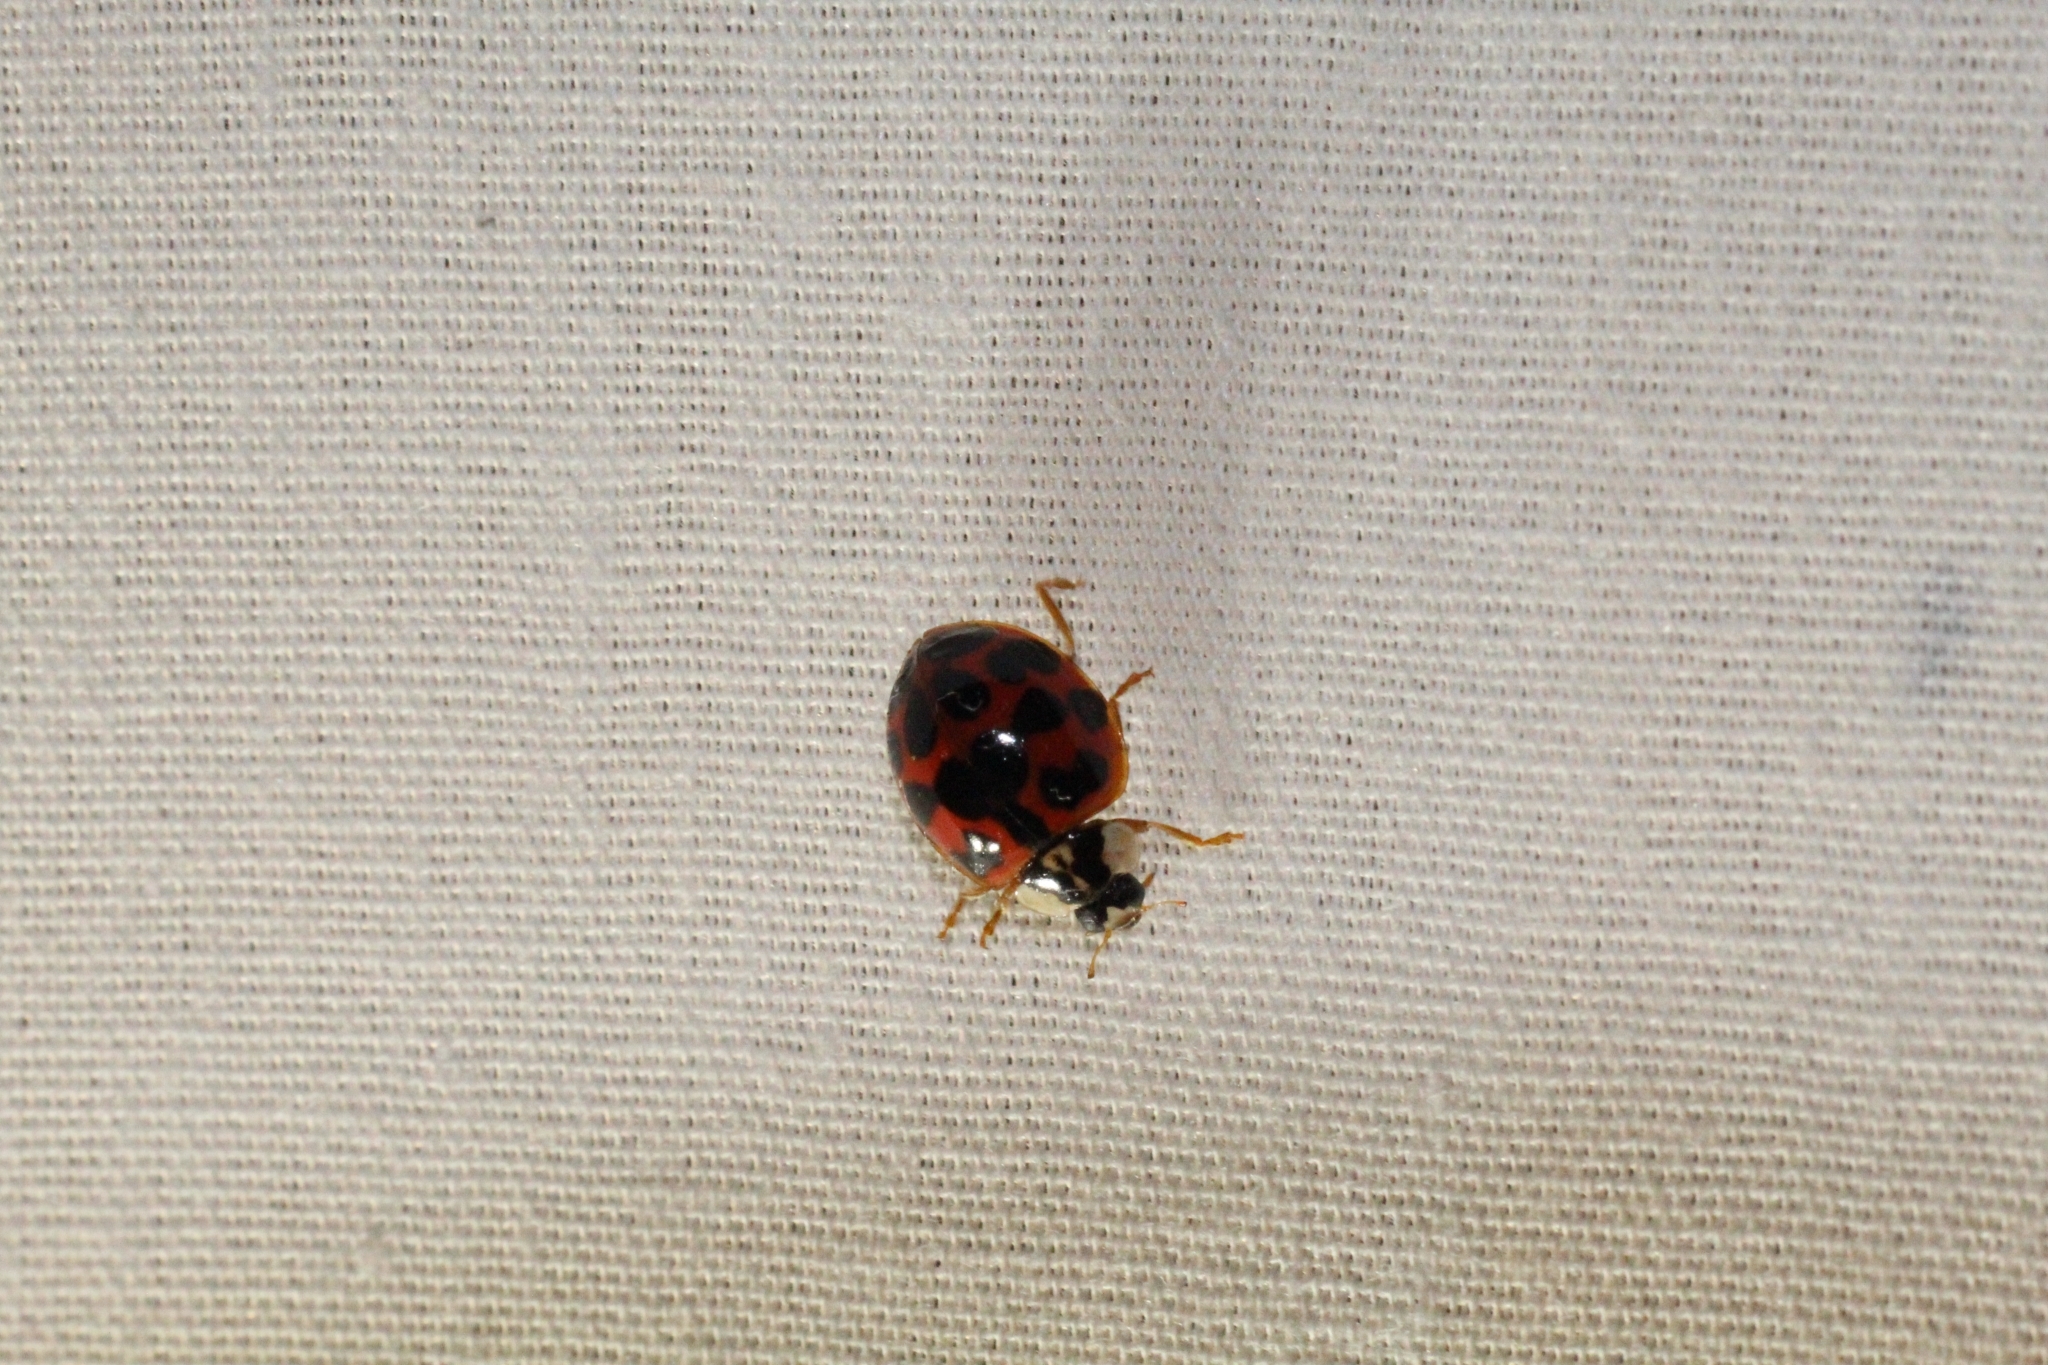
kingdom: Animalia
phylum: Arthropoda
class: Insecta
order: Coleoptera
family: Coccinellidae
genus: Harmonia
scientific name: Harmonia axyridis
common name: Harlequin ladybird
